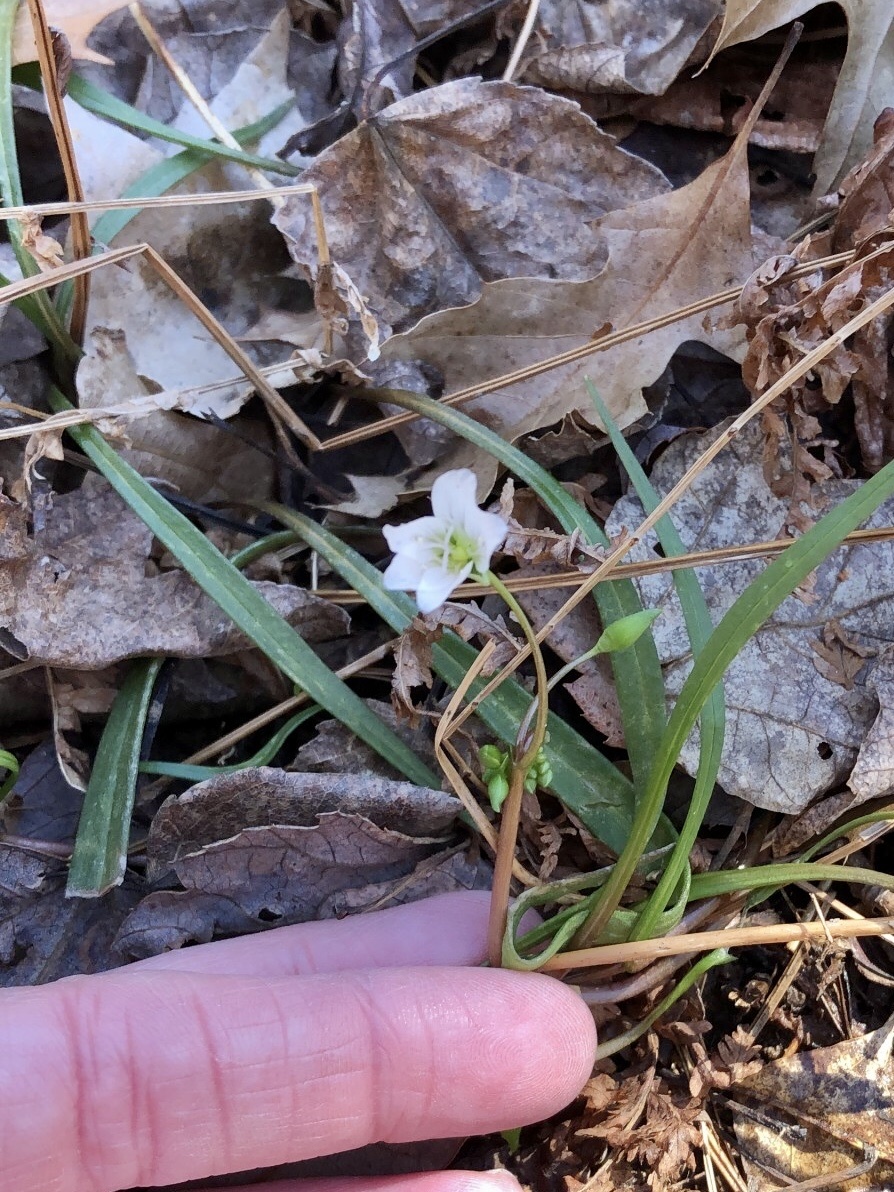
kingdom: Plantae
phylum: Tracheophyta
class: Magnoliopsida
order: Caryophyllales
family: Montiaceae
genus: Claytonia
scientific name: Claytonia virginica
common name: Virginia springbeauty
